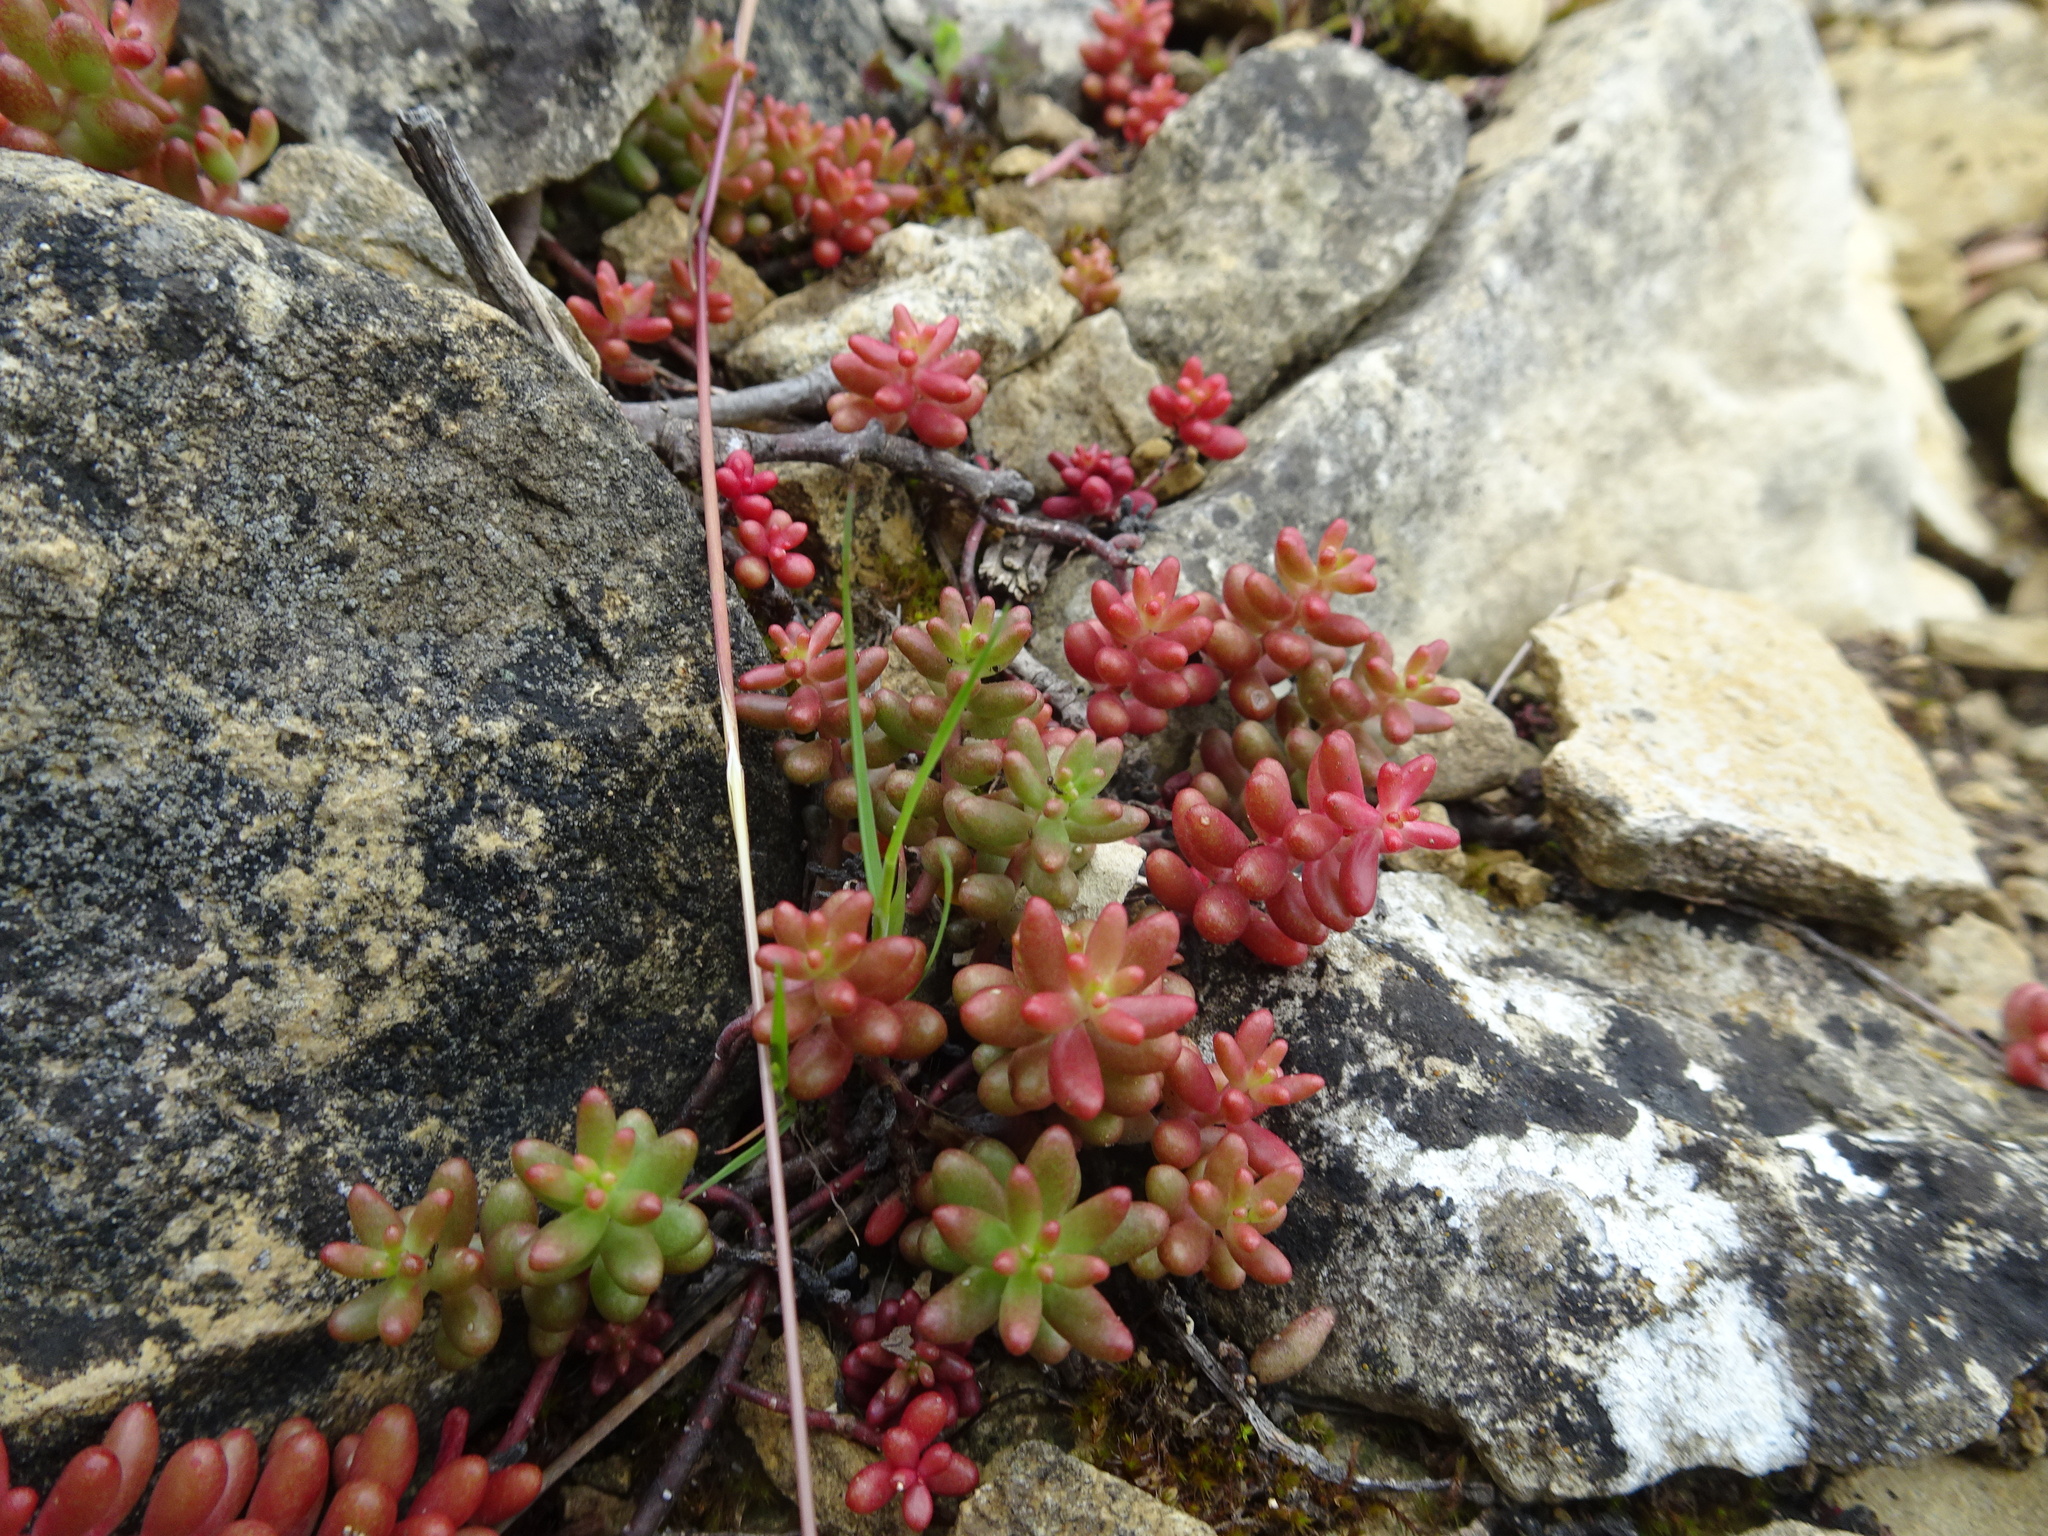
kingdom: Plantae
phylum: Tracheophyta
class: Magnoliopsida
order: Saxifragales
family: Crassulaceae
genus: Sedum
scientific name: Sedum album
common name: White stonecrop
